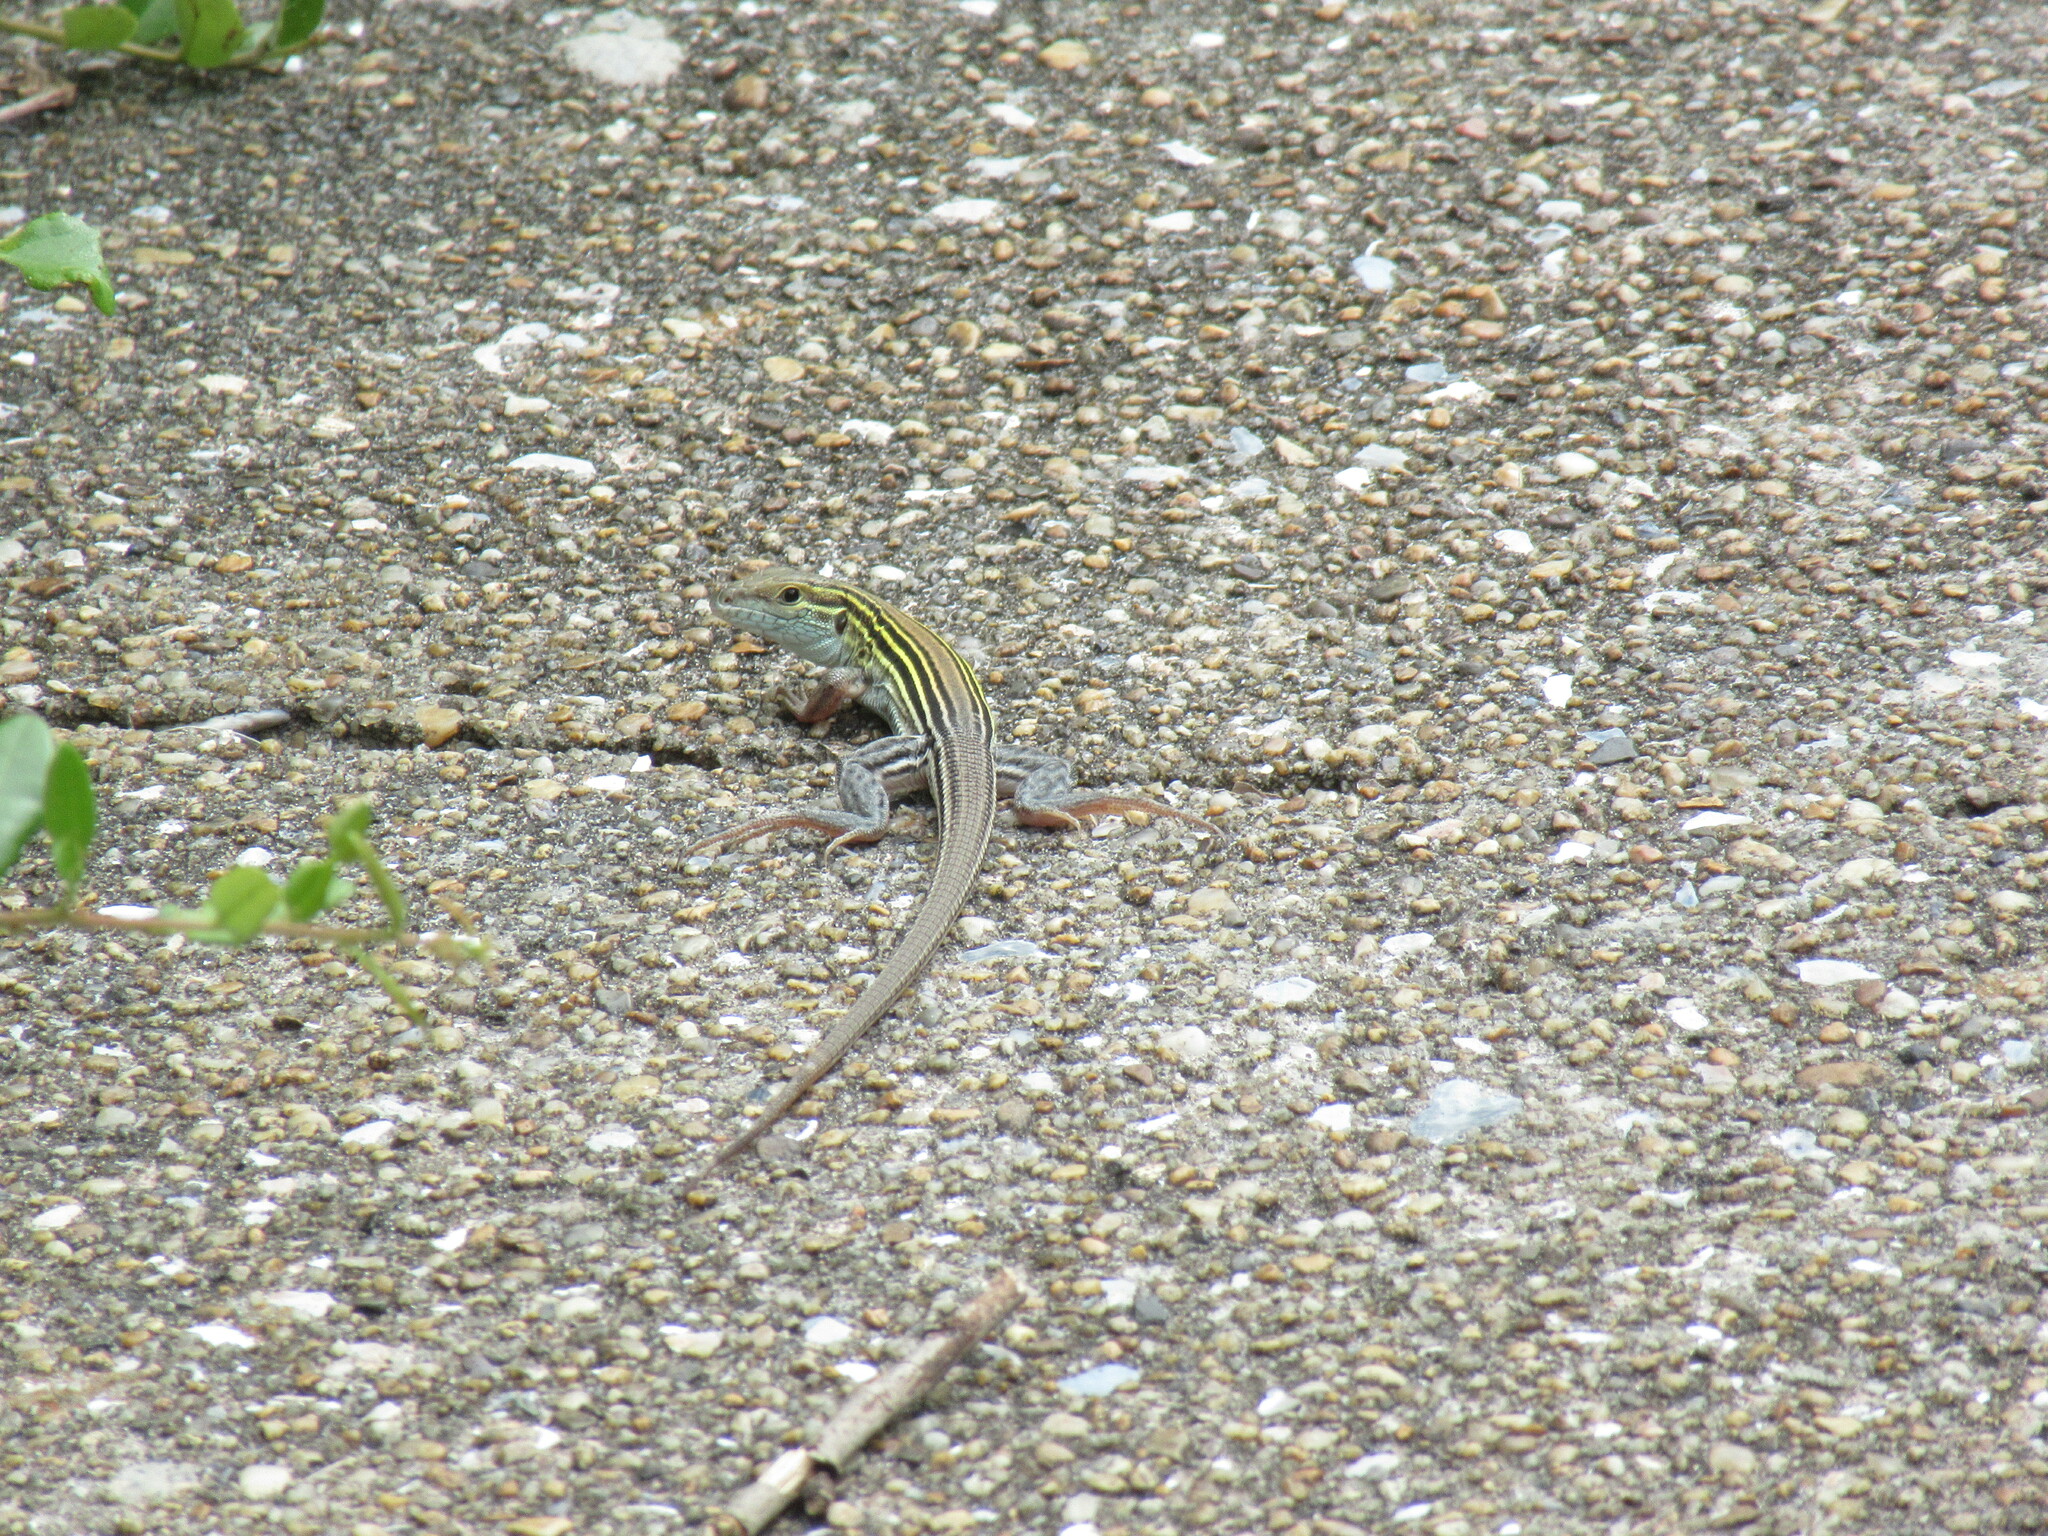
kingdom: Animalia
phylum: Chordata
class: Squamata
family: Teiidae
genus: Aspidoscelis
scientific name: Aspidoscelis sexlineatus
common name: Six-lined racerunner
